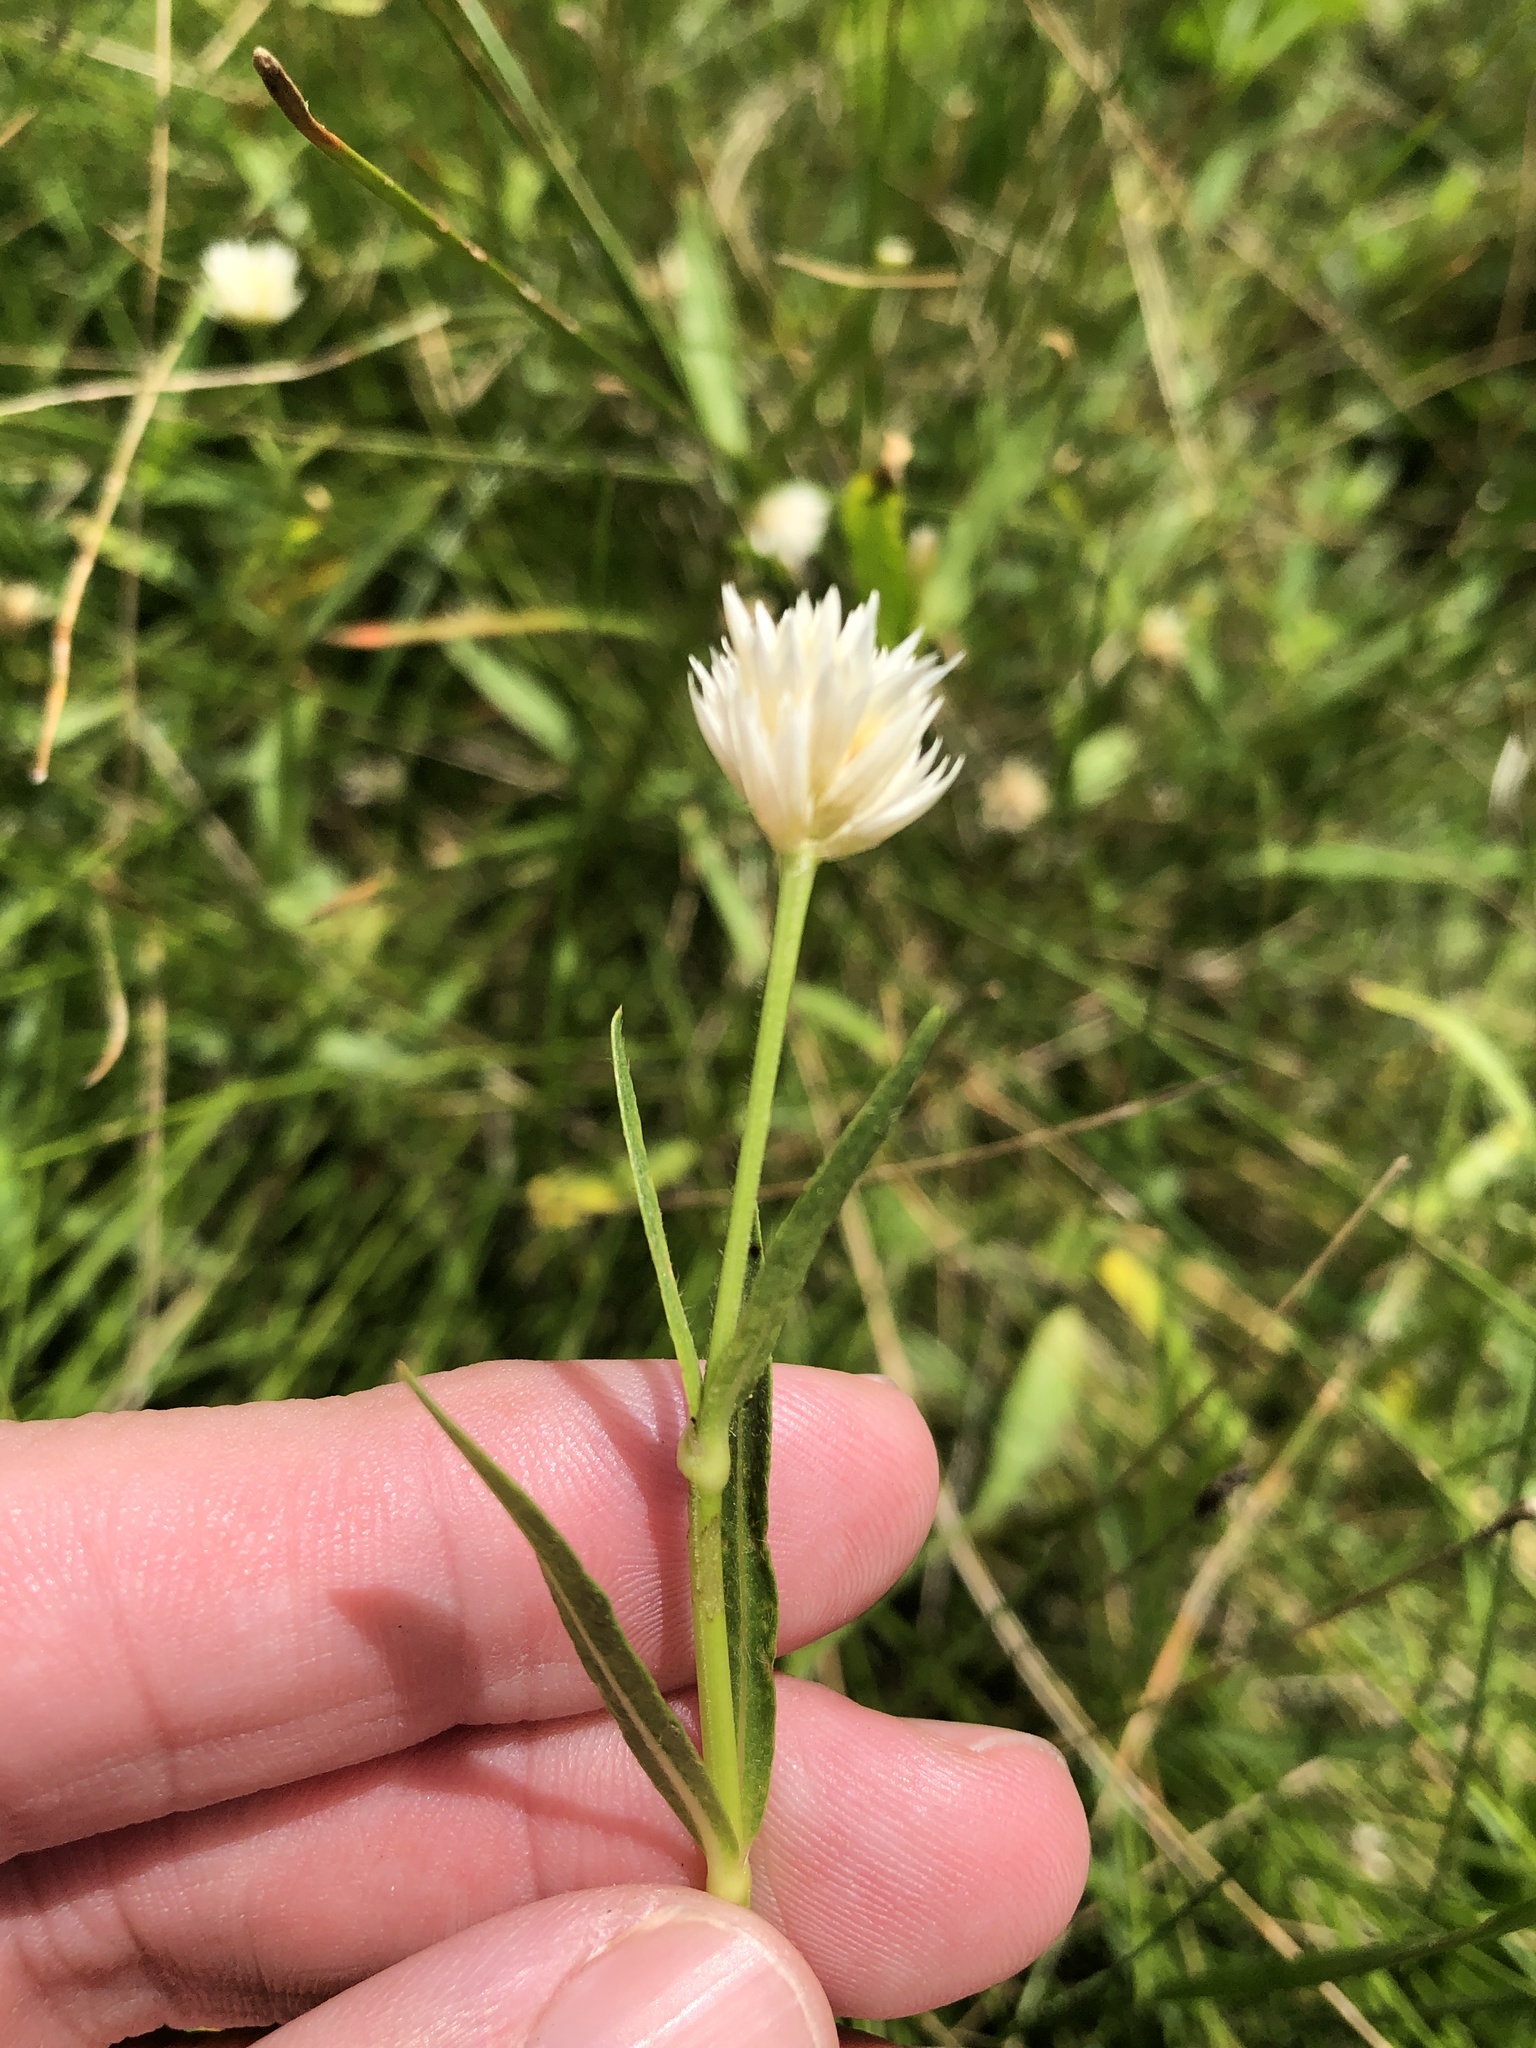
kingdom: Plantae
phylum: Tracheophyta
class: Magnoliopsida
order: Caryophyllales
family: Amaranthaceae
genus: Alternanthera
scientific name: Alternanthera philoxeroides
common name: Alligatorweed
